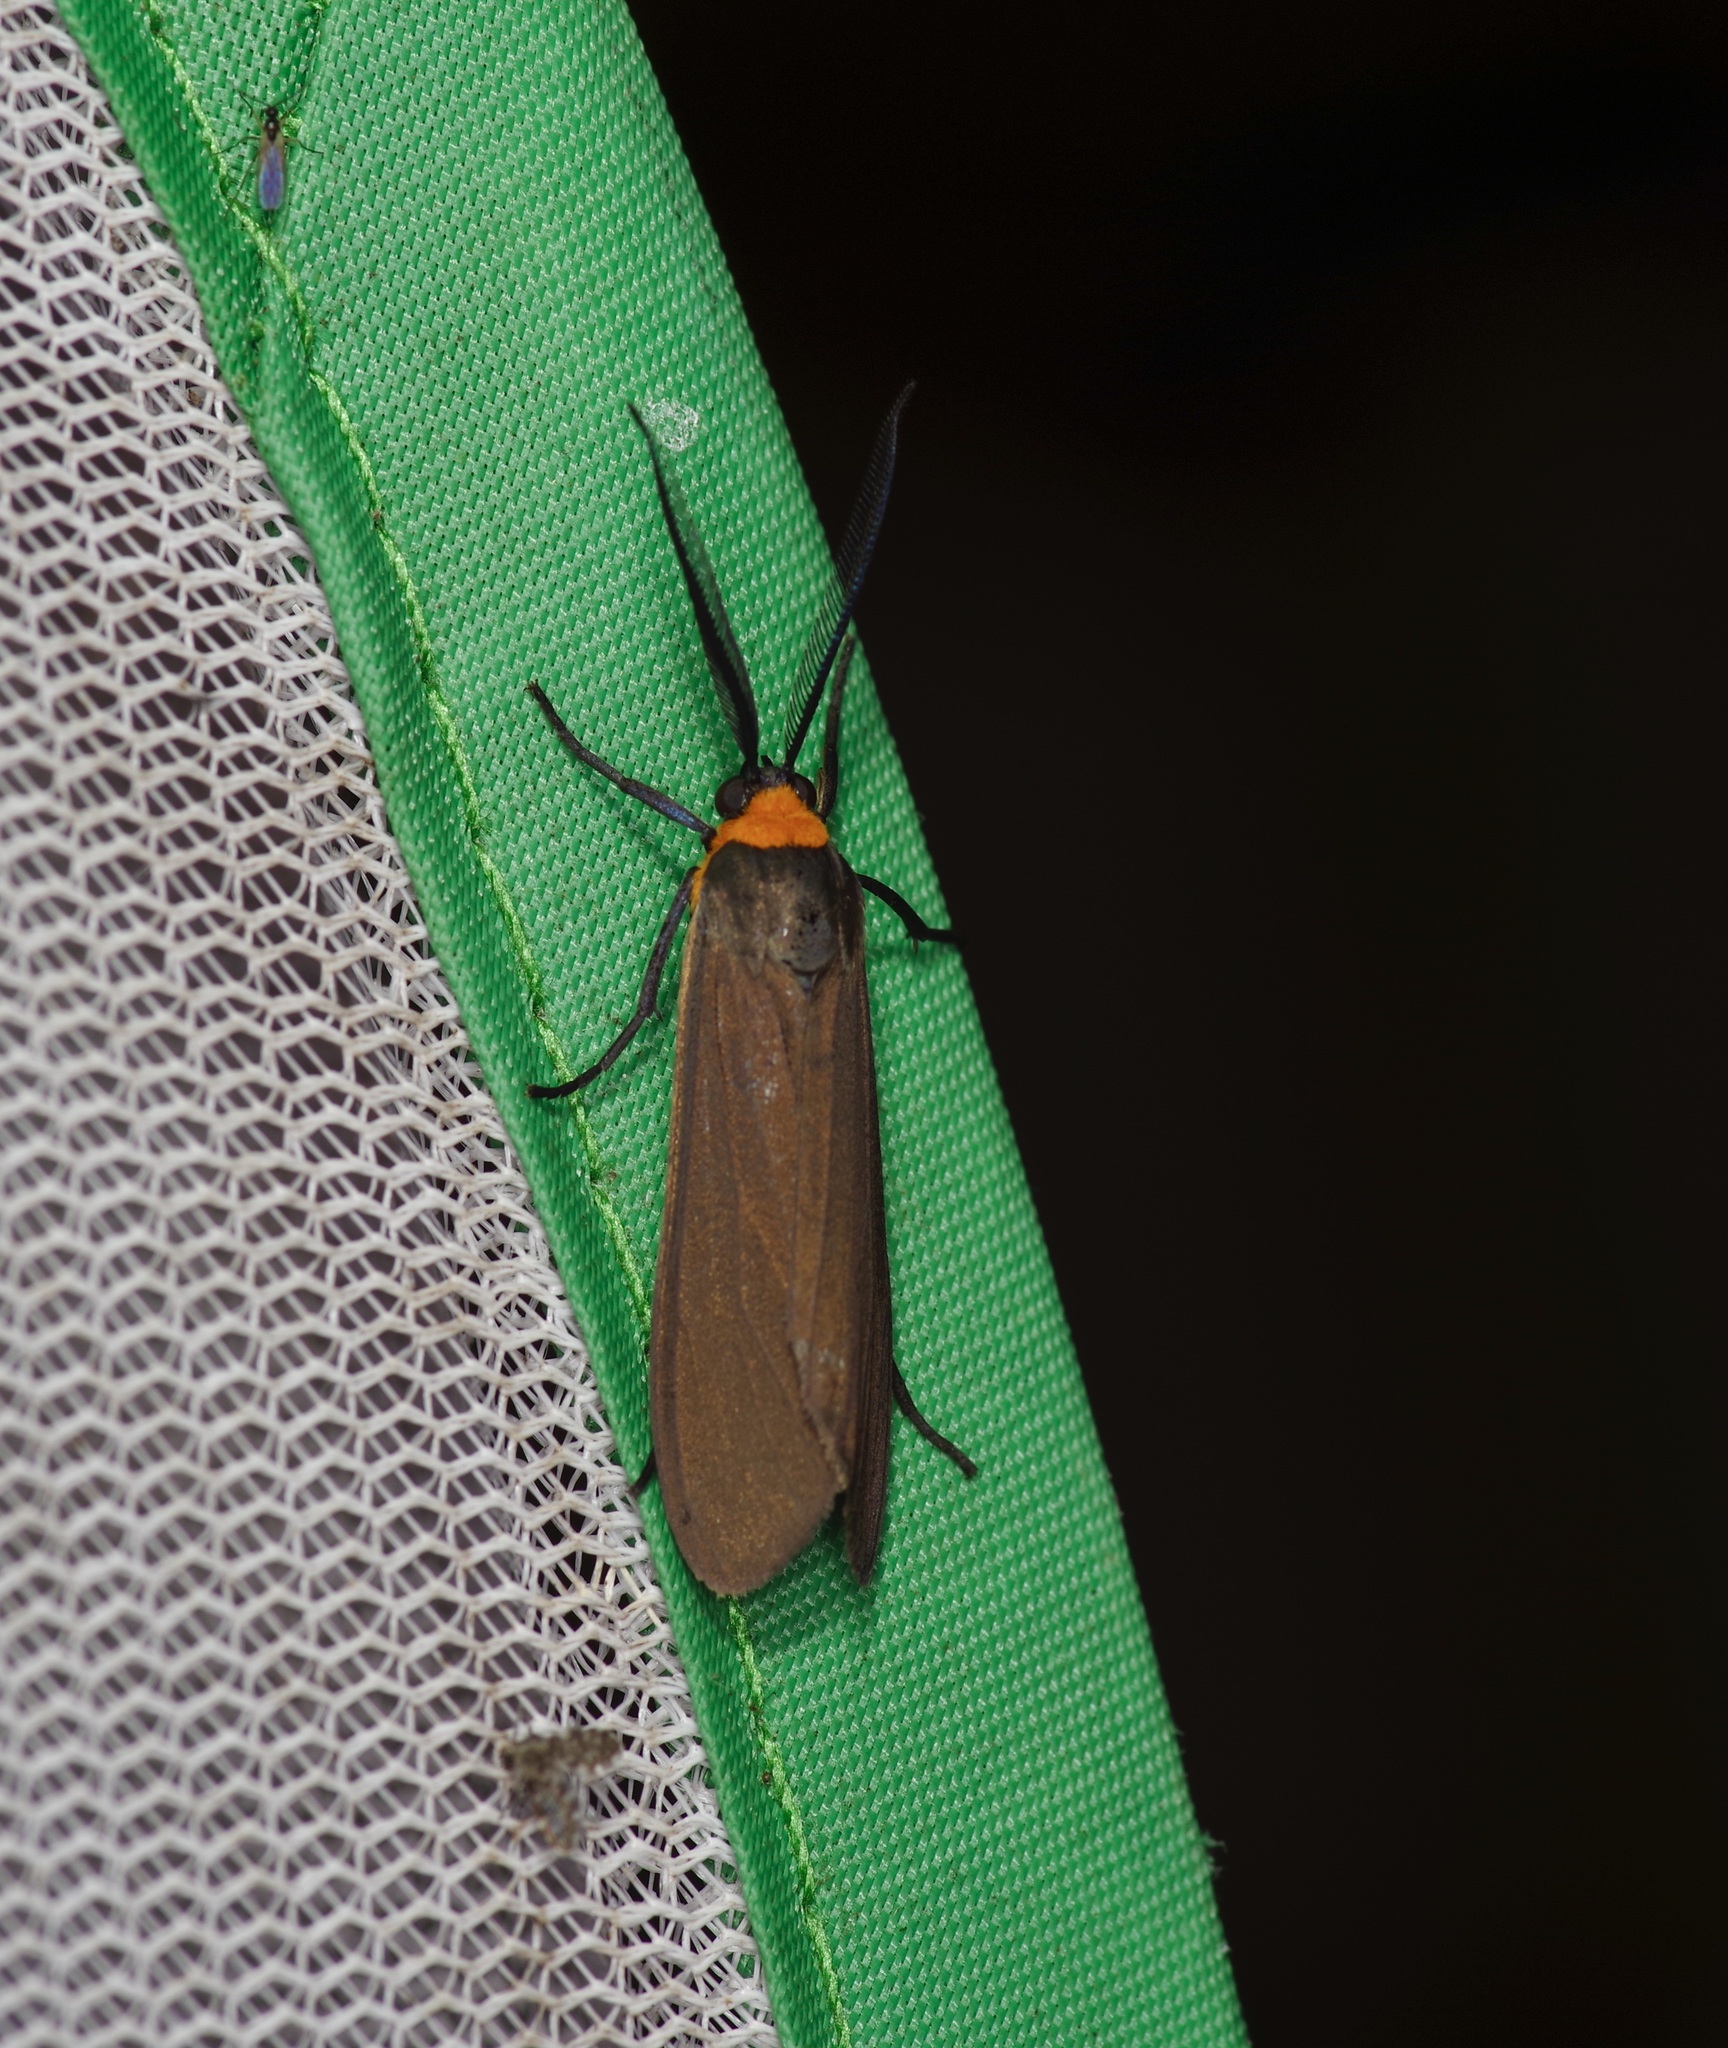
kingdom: Animalia
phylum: Arthropoda
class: Insecta
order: Lepidoptera
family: Erebidae
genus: Cisseps
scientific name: Cisseps fulvicollis
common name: Yellow-collared scape moth
